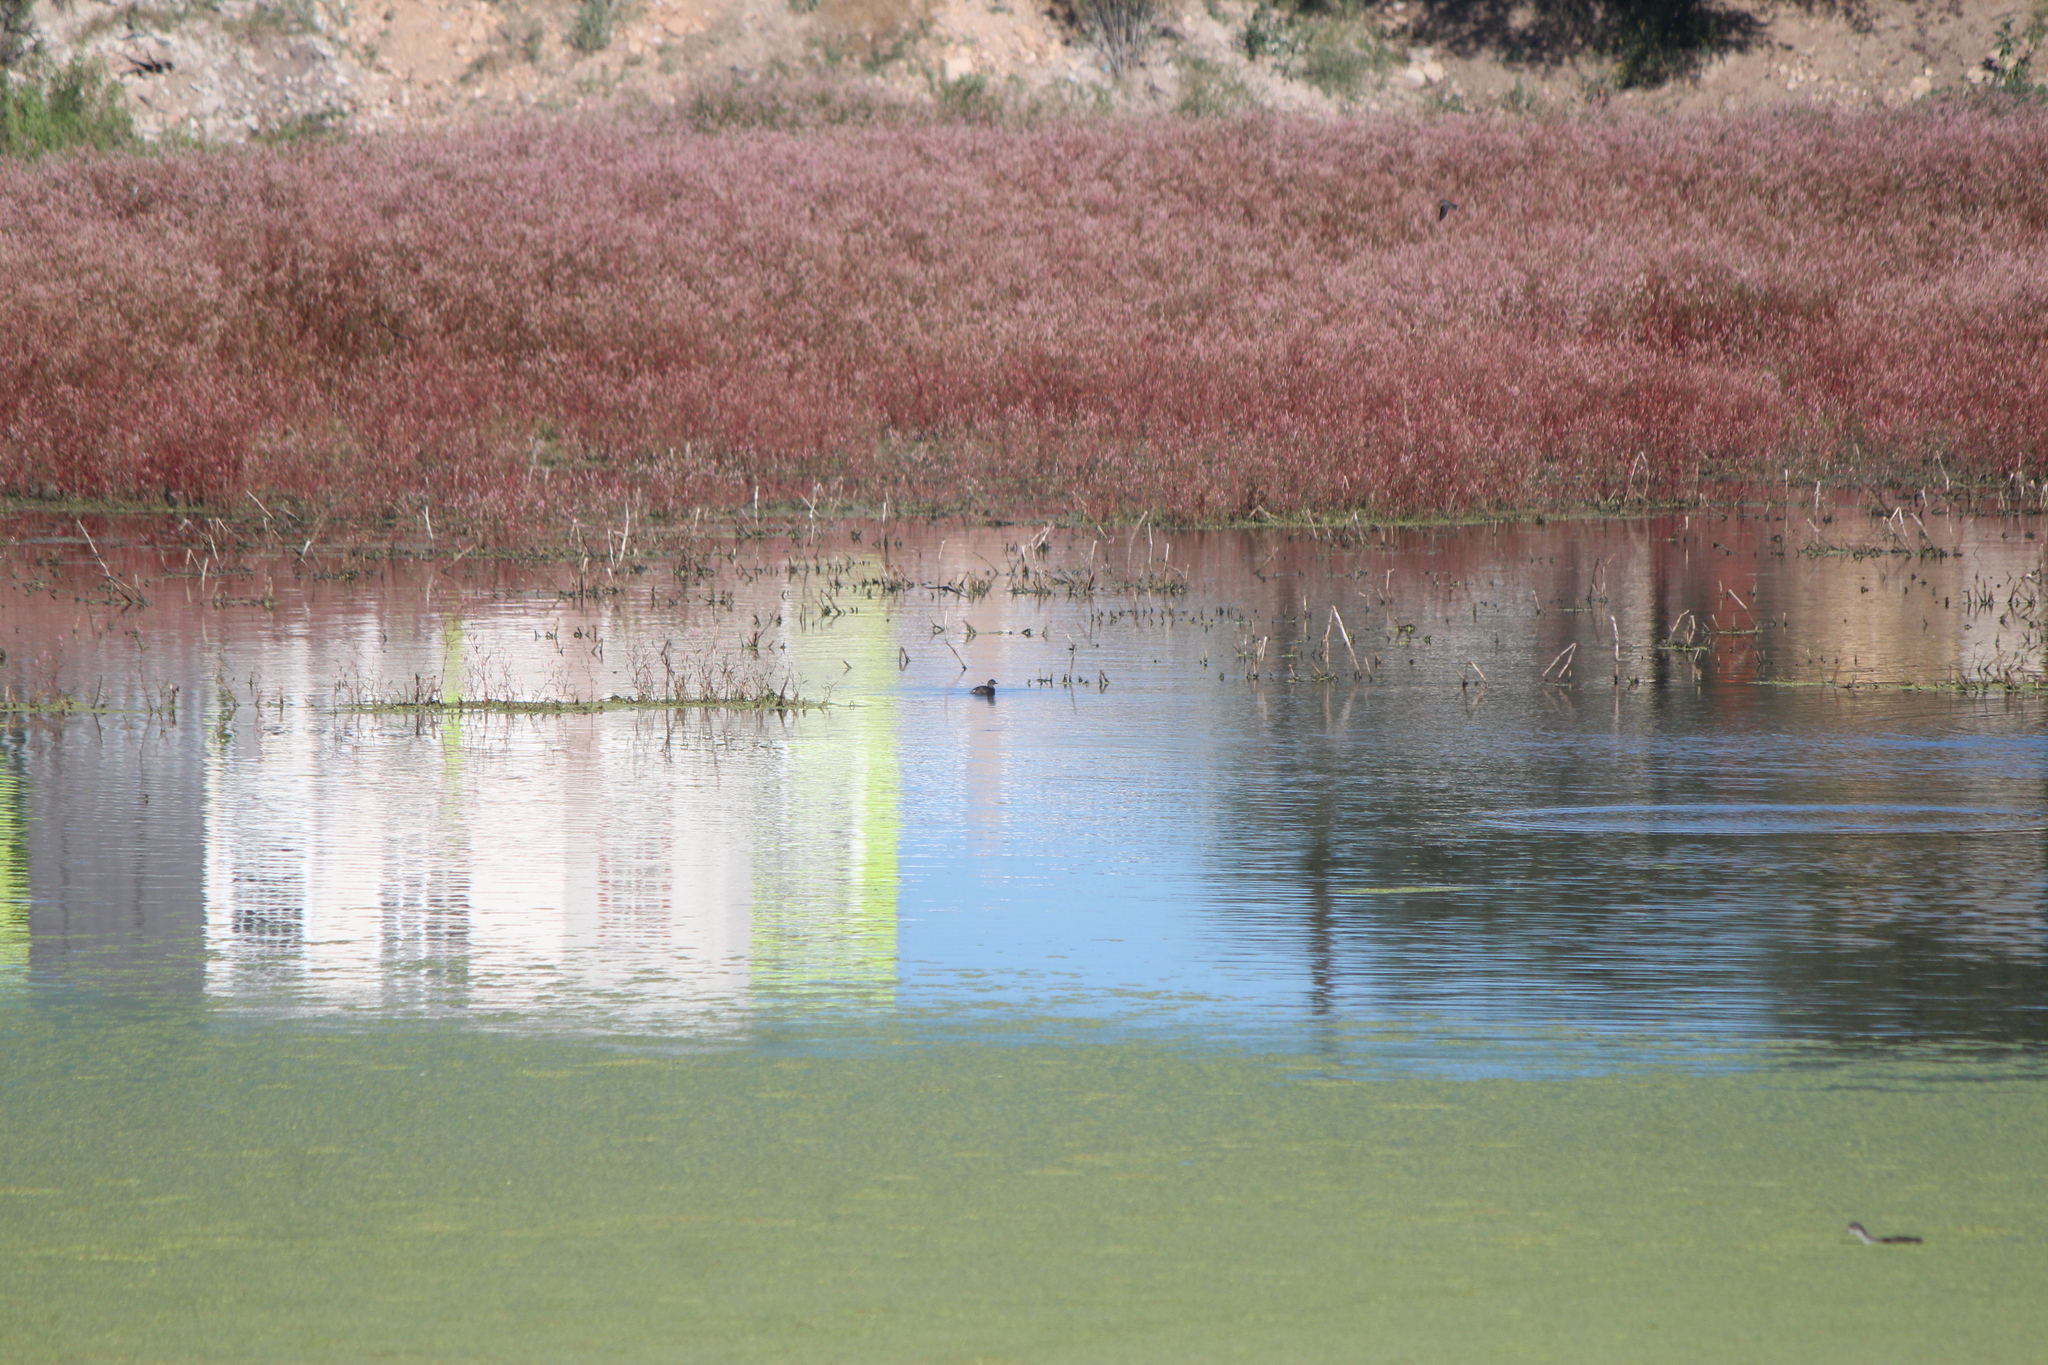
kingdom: Animalia
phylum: Chordata
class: Aves
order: Podicipediformes
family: Podicipedidae
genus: Tachybaptus
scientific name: Tachybaptus dominicus
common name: Least grebe
